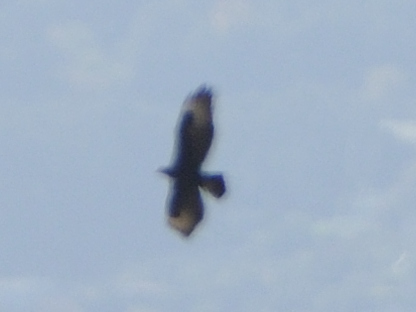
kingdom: Animalia
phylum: Chordata
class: Aves
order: Accipitriformes
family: Accipitridae
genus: Aquila
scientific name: Aquila verreauxii
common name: Verreaux's eagle
